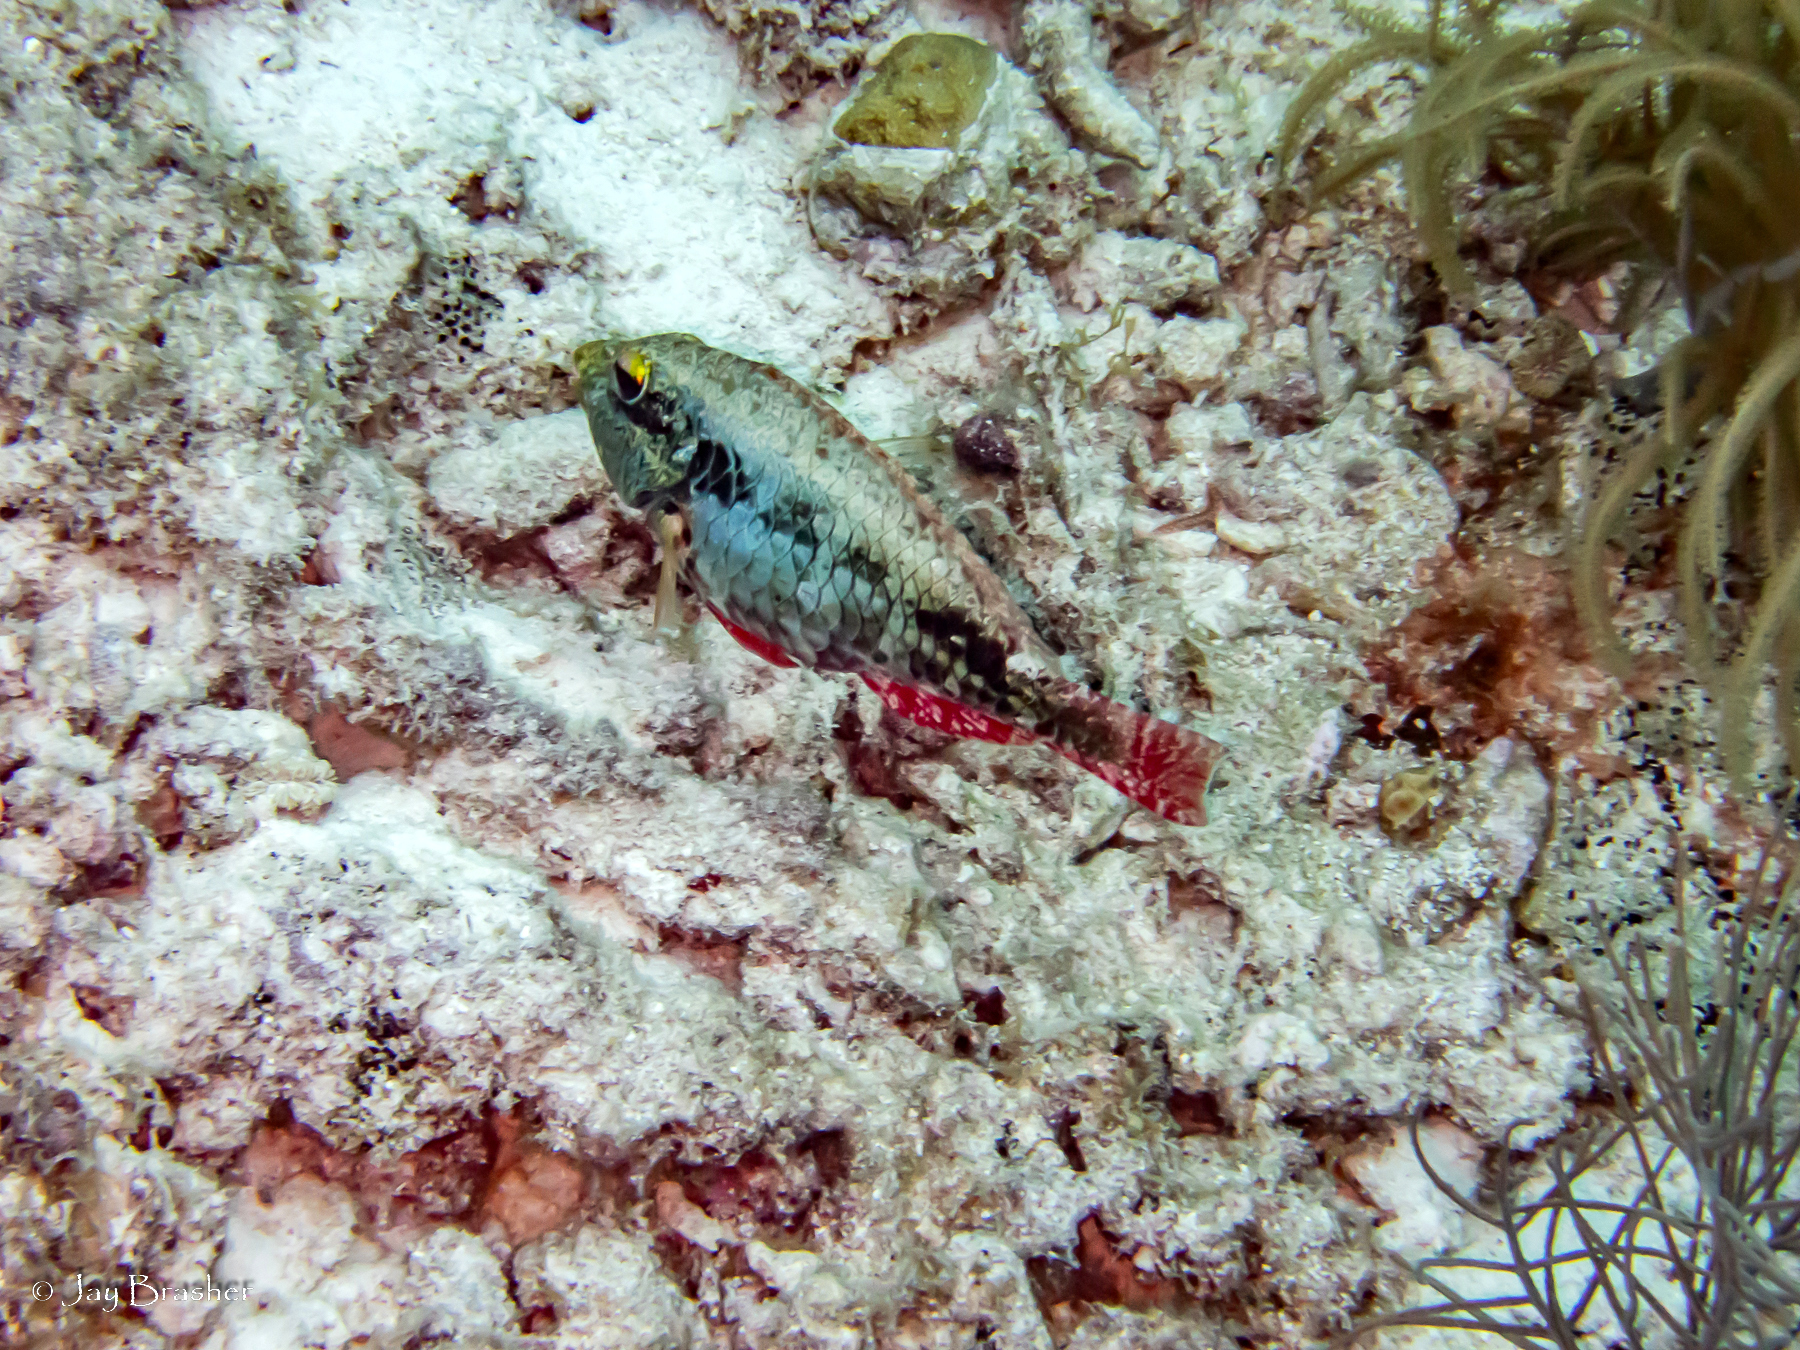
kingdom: Animalia
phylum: Chordata
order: Perciformes
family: Scaridae
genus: Sparisoma
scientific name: Sparisoma aurofrenatum
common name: Redband parrotfish
